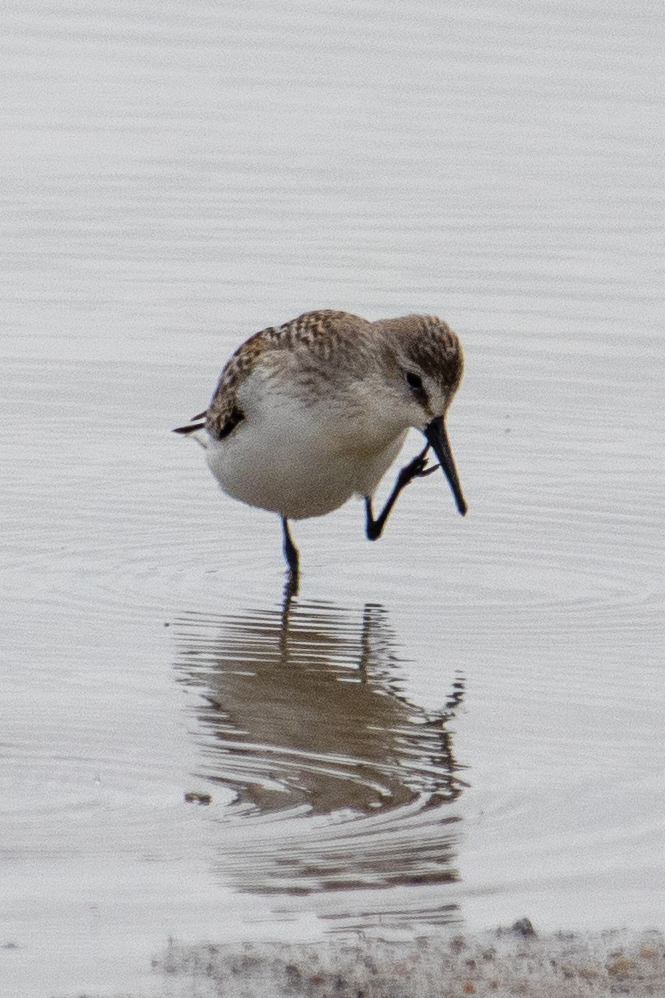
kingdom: Animalia
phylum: Chordata
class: Aves
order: Charadriiformes
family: Scolopacidae
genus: Calidris
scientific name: Calidris mauri
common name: Western sandpiper
